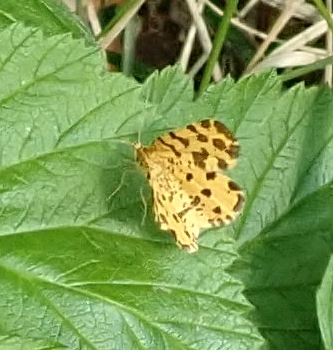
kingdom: Animalia
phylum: Arthropoda
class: Insecta
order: Lepidoptera
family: Geometridae
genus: Pseudopanthera
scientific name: Pseudopanthera macularia
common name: Speckled yellow
